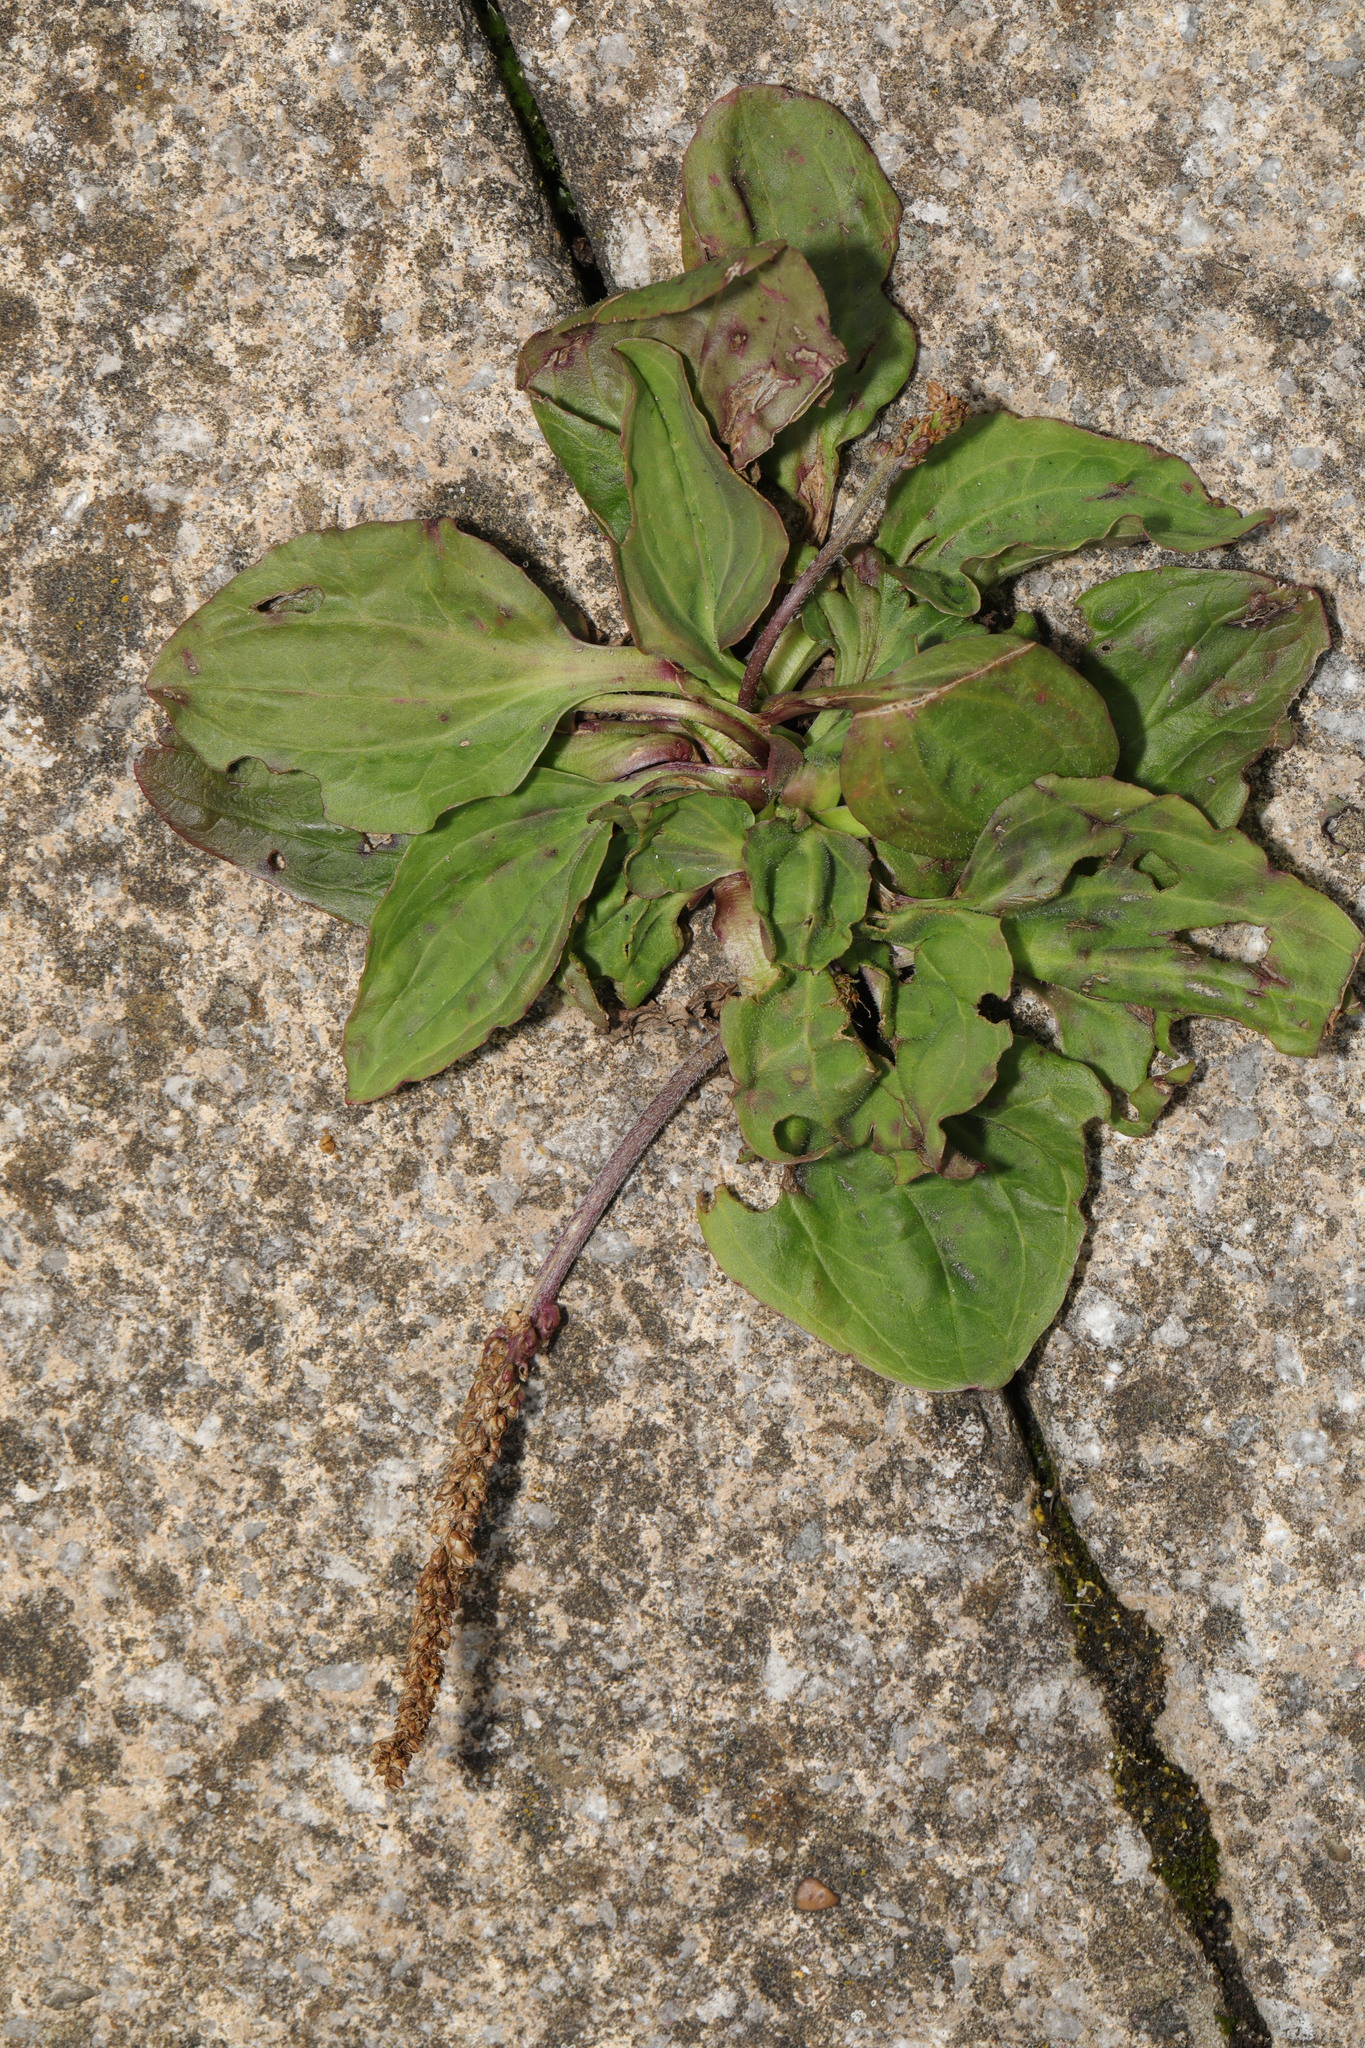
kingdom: Plantae
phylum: Tracheophyta
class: Magnoliopsida
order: Lamiales
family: Plantaginaceae
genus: Plantago
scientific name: Plantago major
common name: Common plantain
